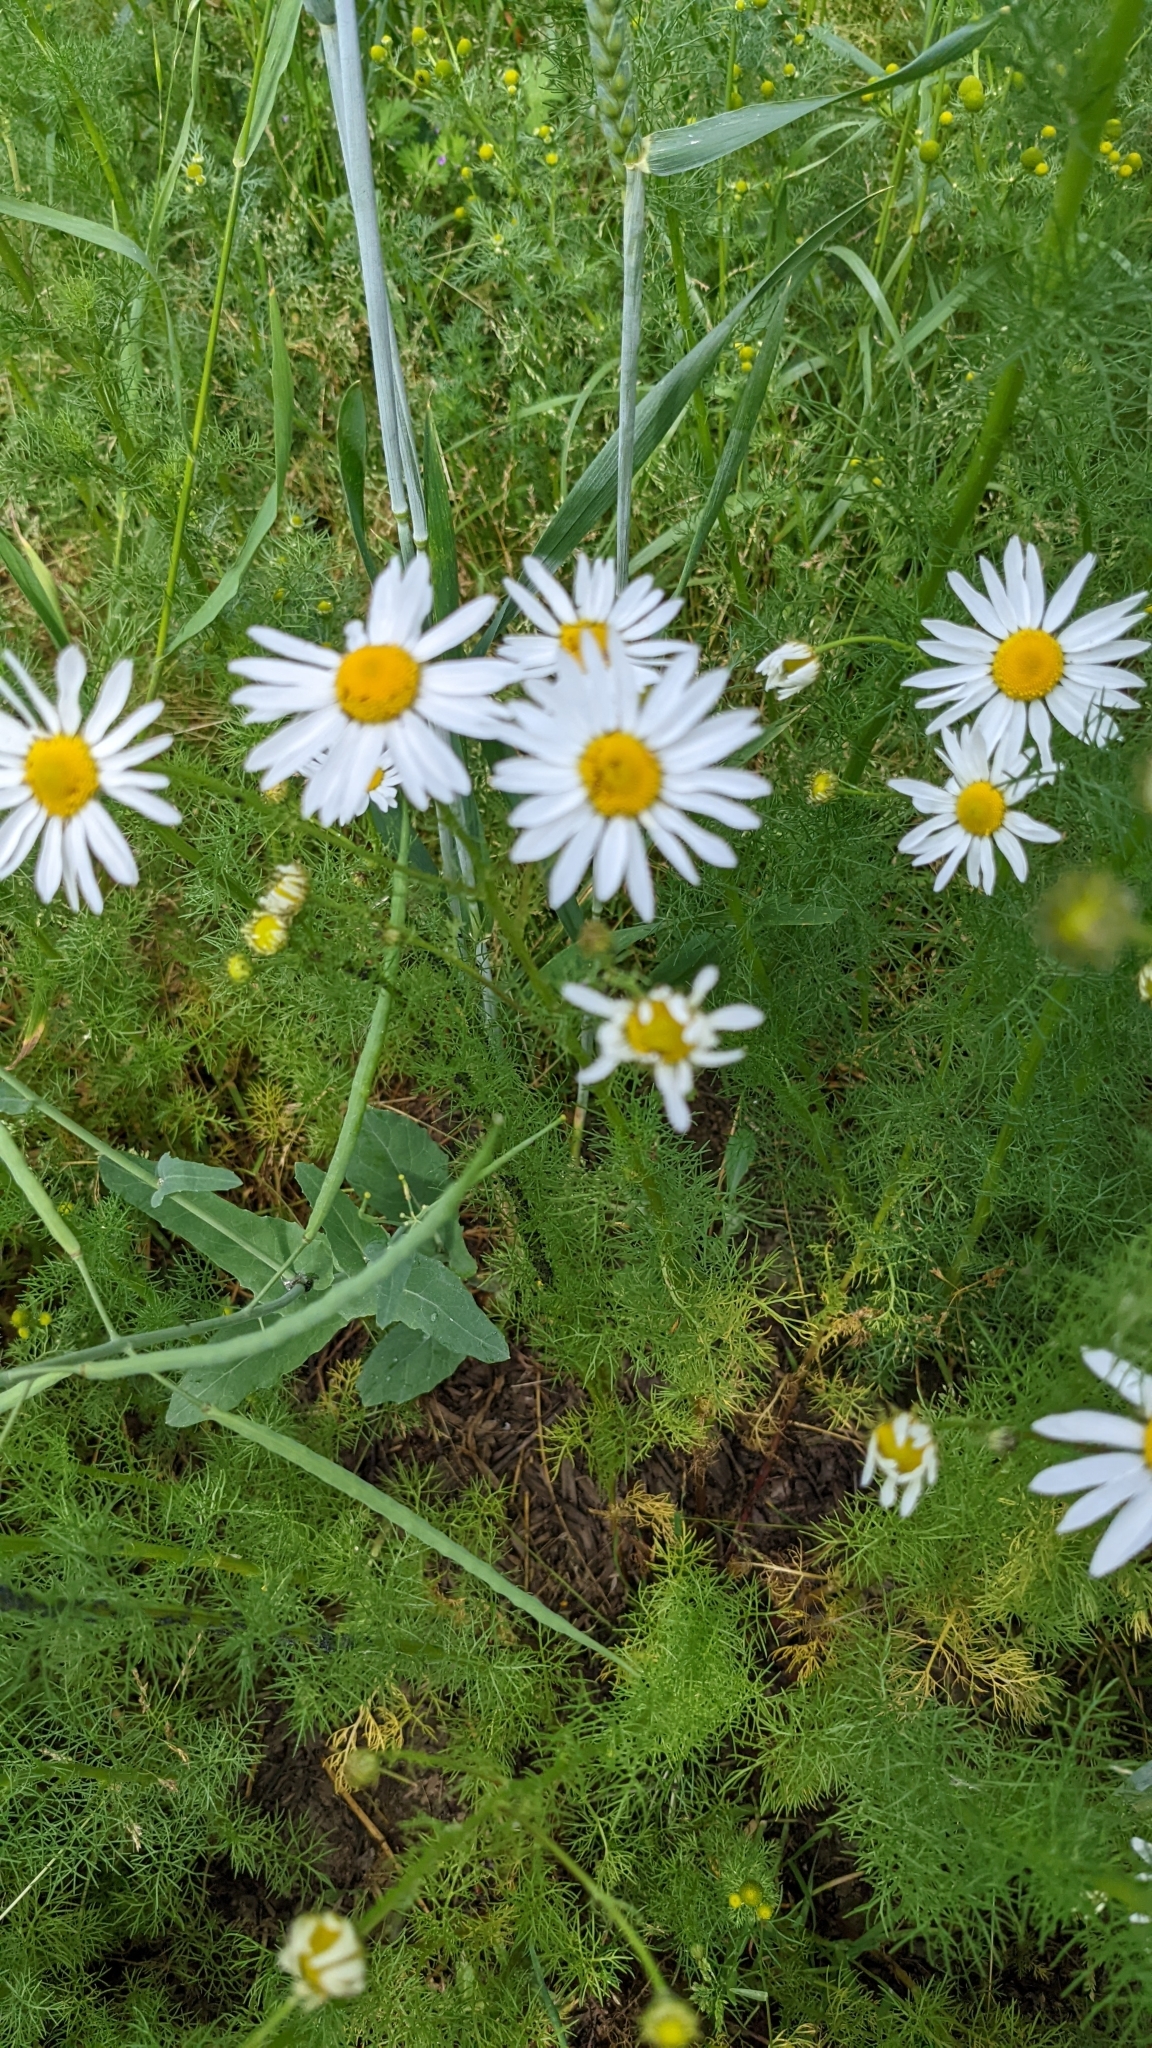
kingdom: Plantae
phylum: Tracheophyta
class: Magnoliopsida
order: Asterales
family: Asteraceae
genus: Tripleurospermum
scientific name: Tripleurospermum inodorum
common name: Scentless mayweed
